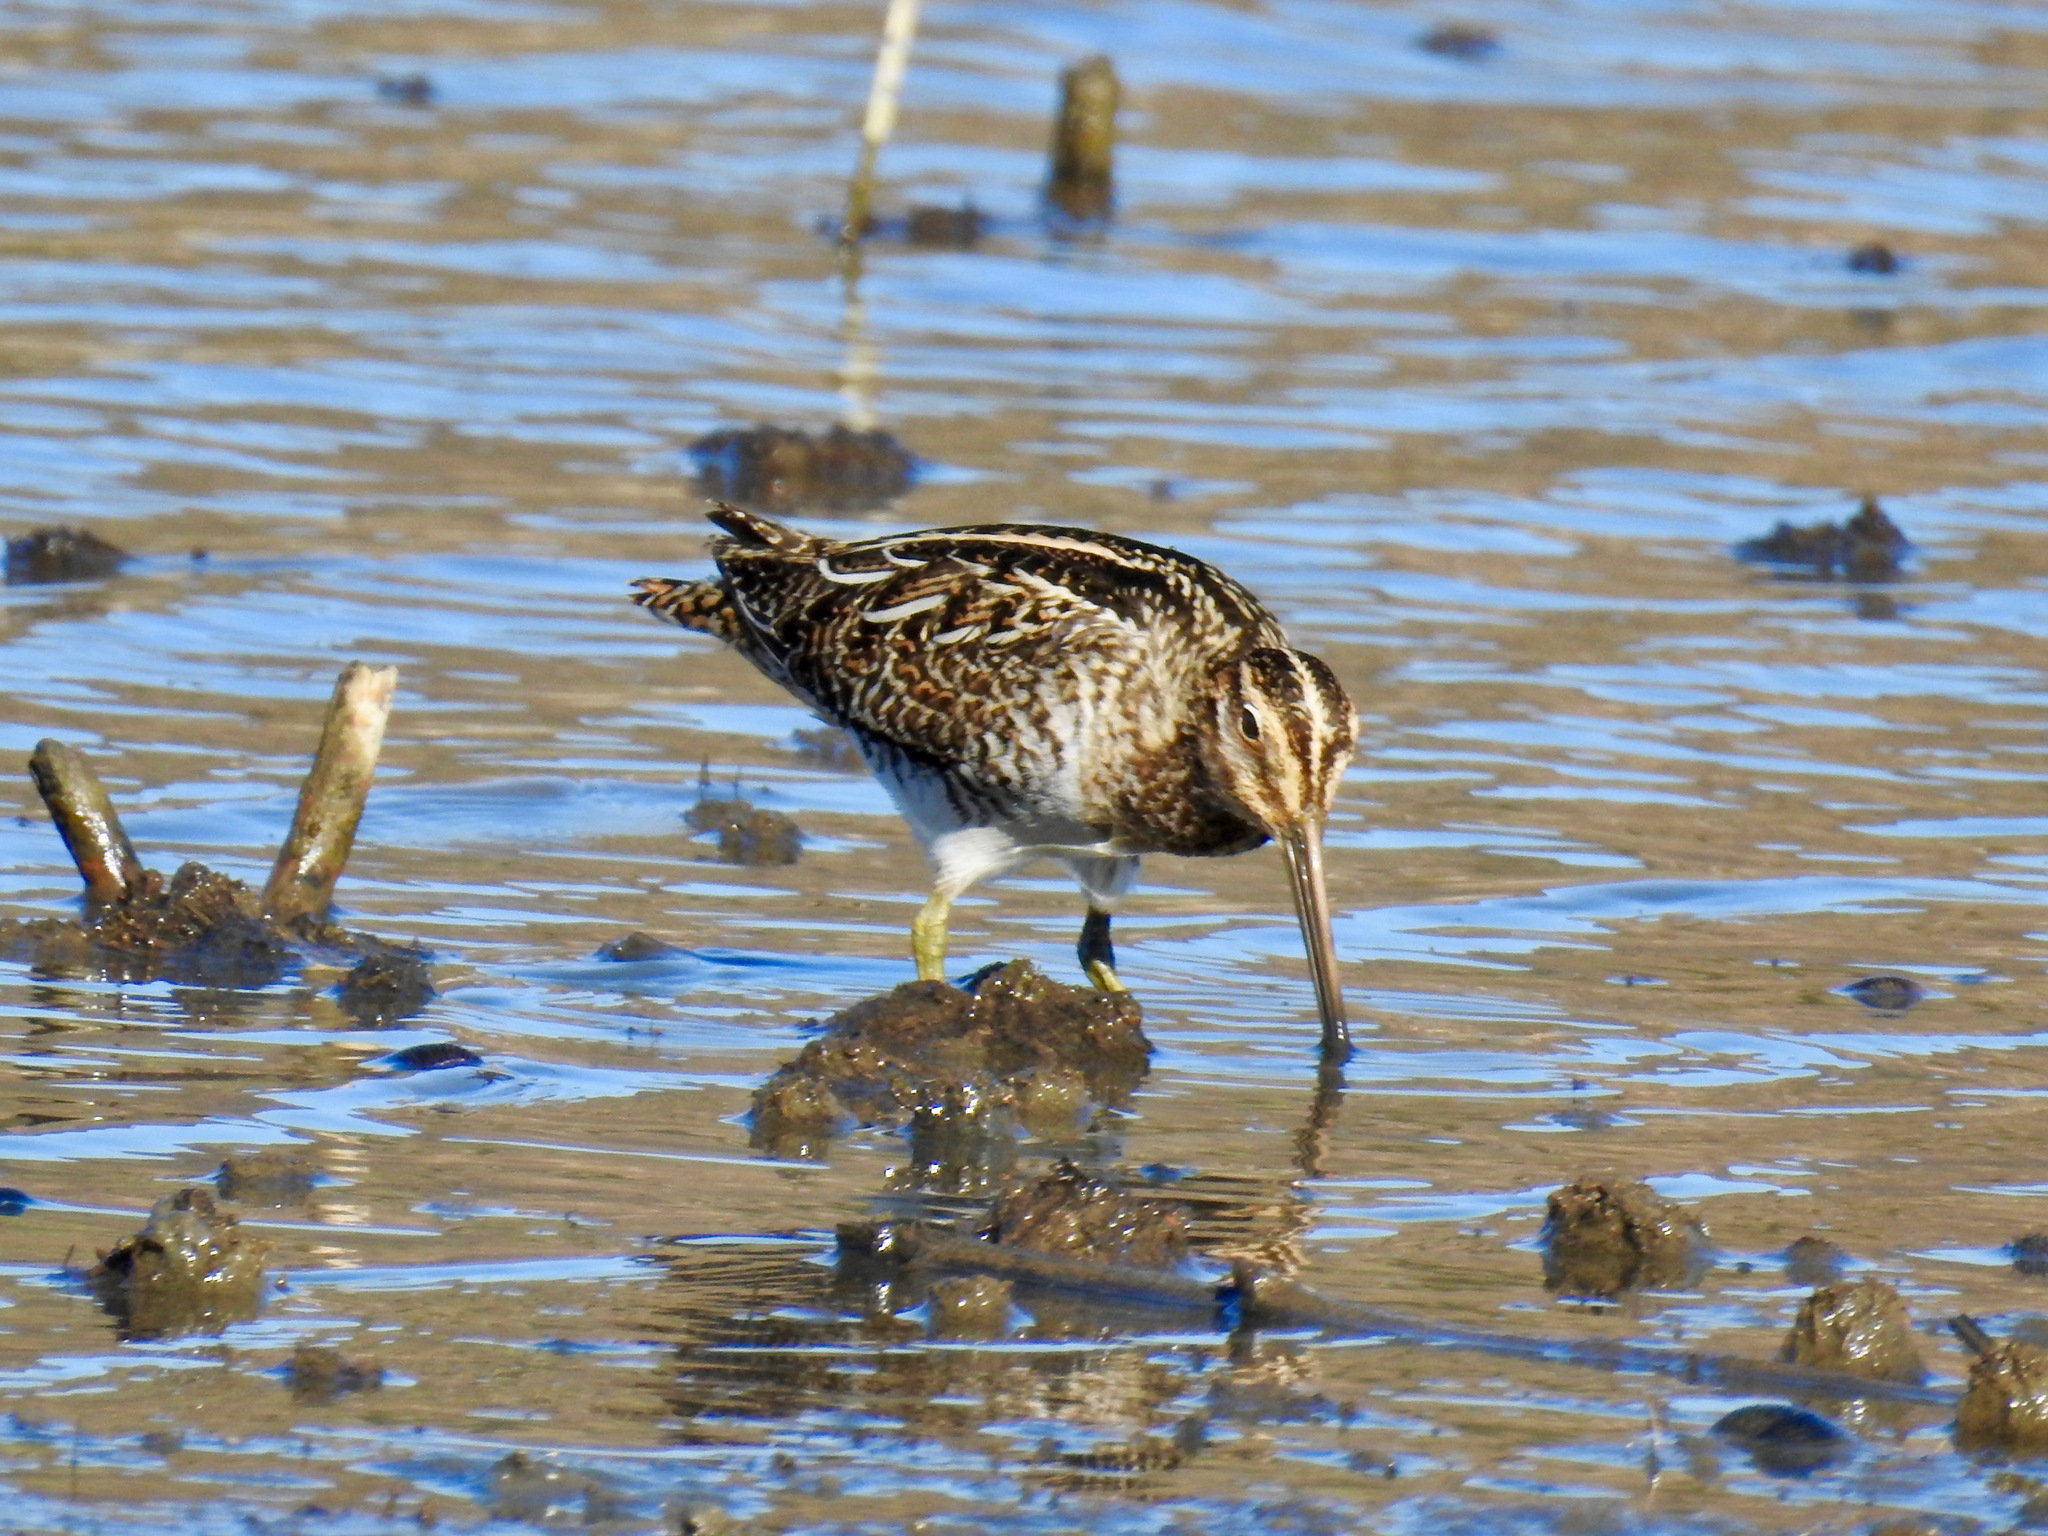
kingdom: Animalia
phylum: Chordata
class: Aves
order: Charadriiformes
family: Scolopacidae
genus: Gallinago
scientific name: Gallinago delicata
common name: Wilson's snipe
